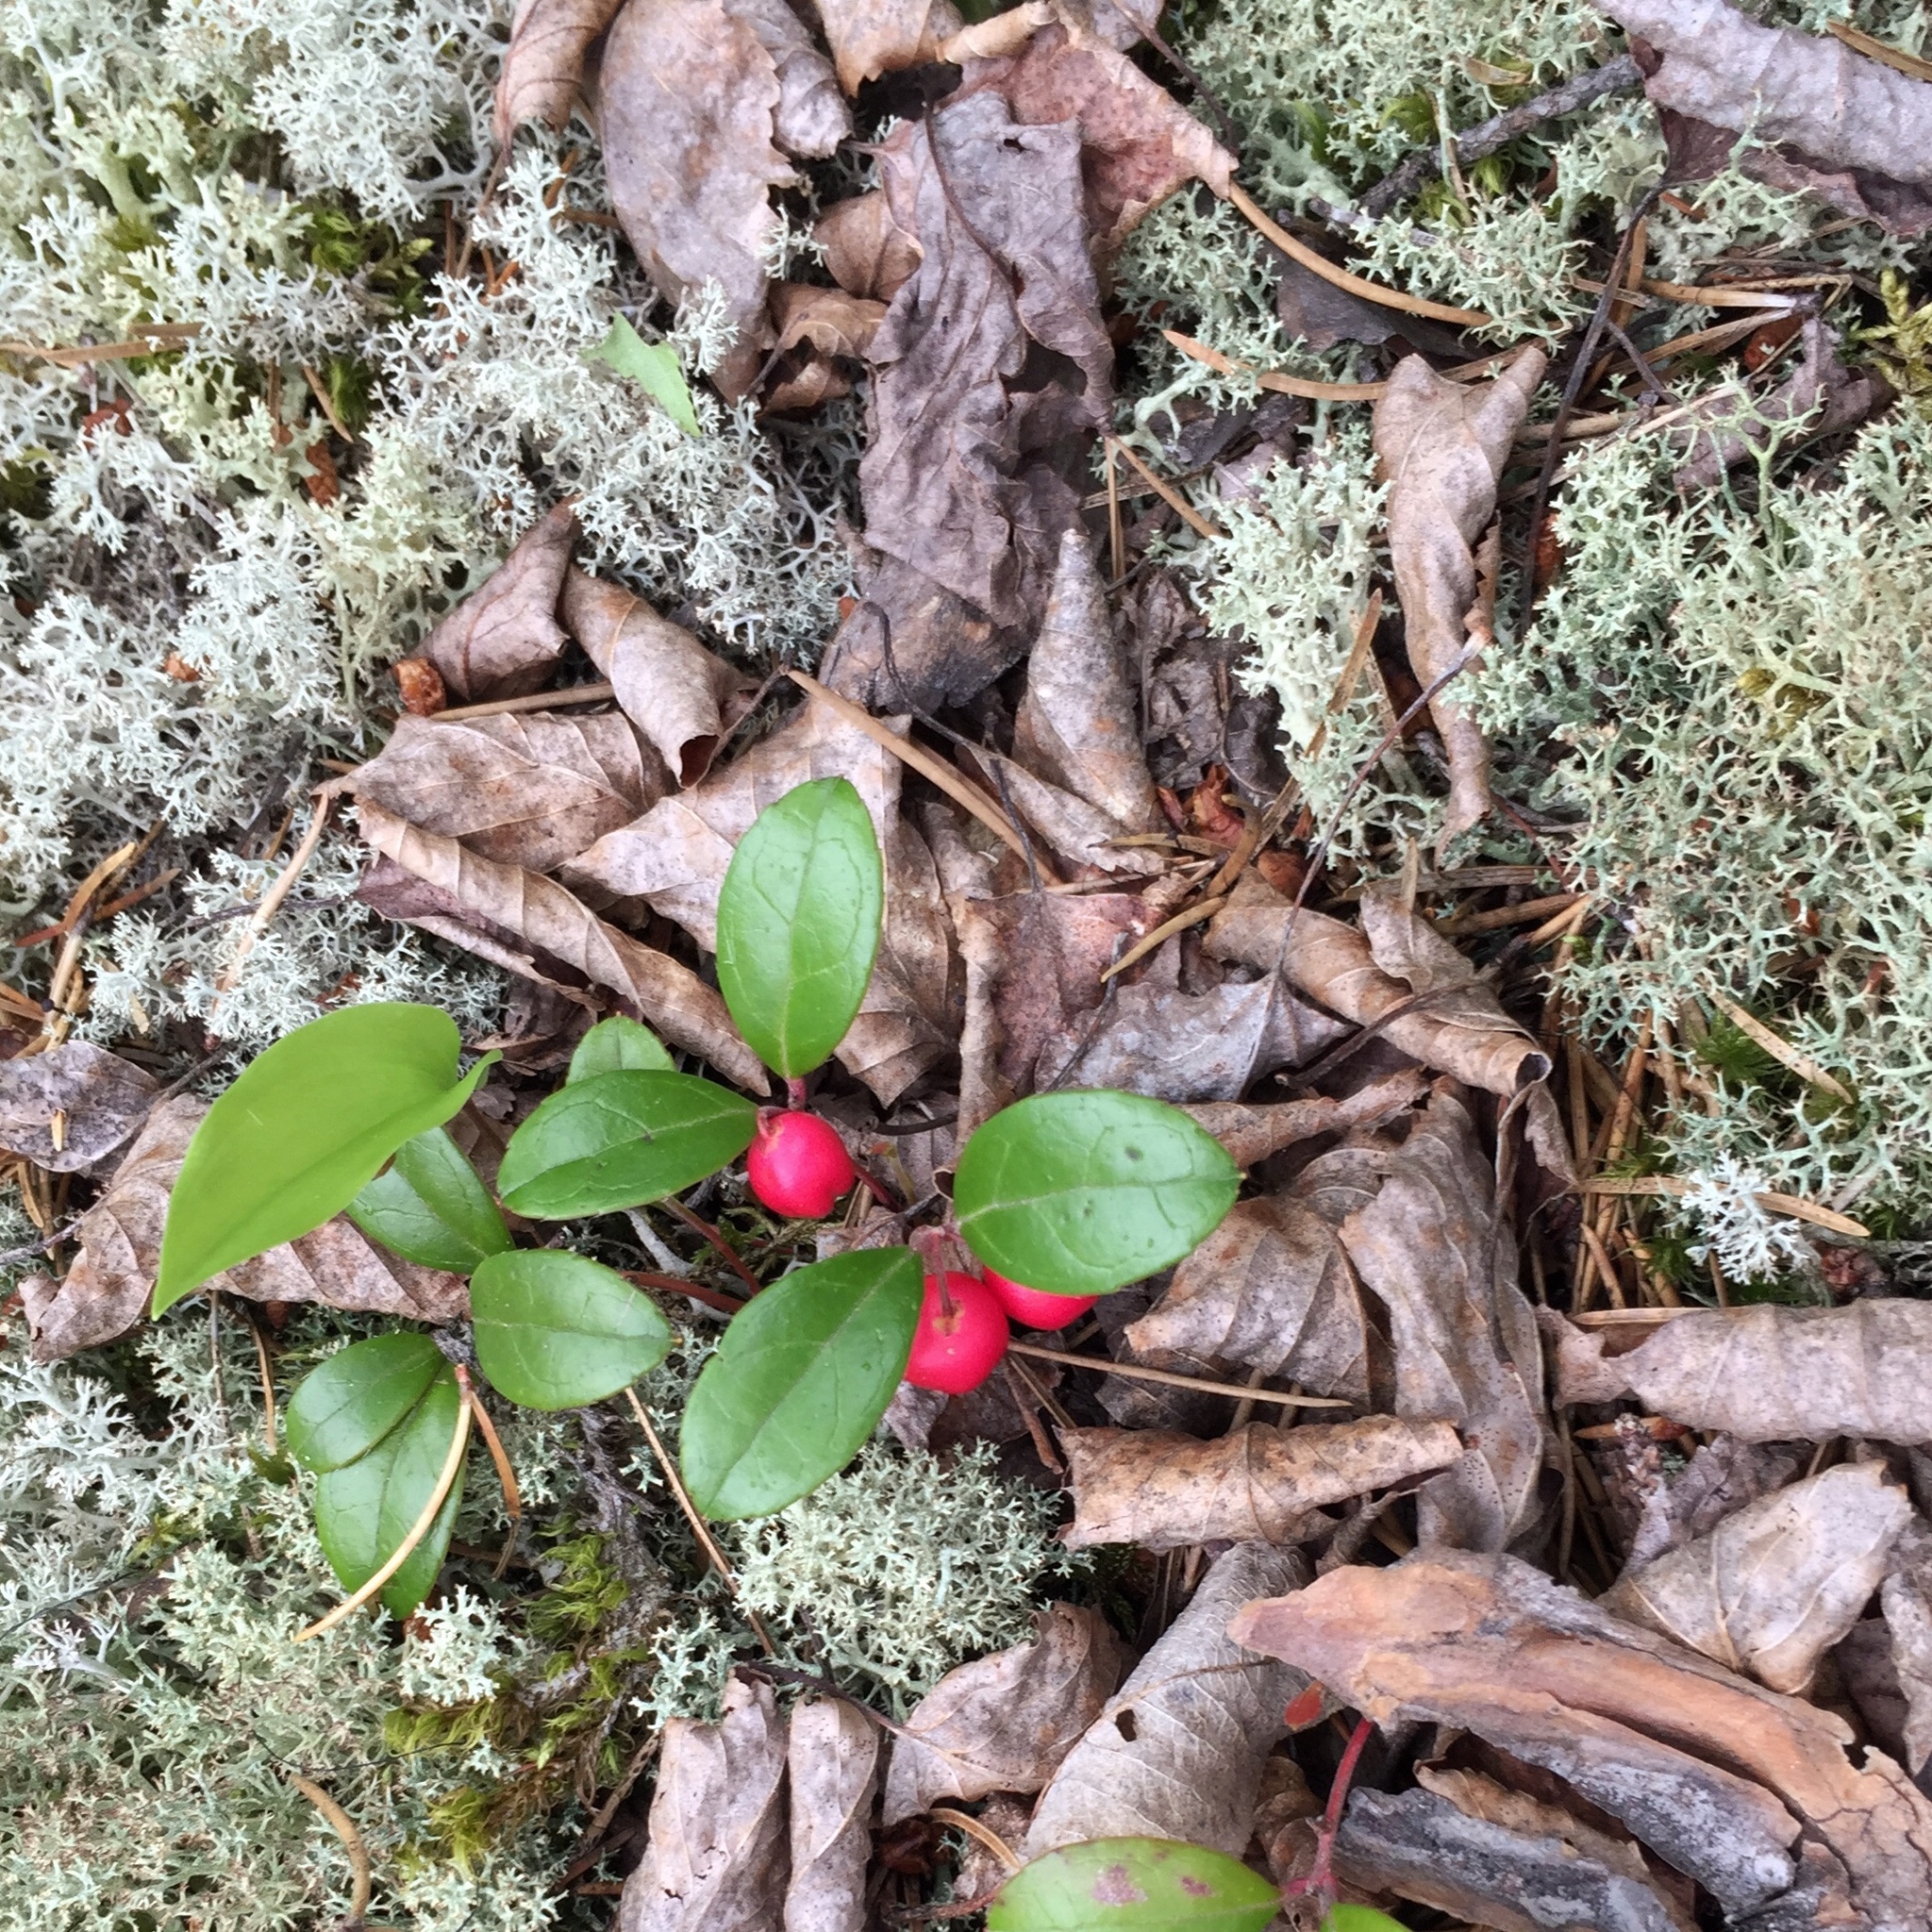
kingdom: Plantae
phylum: Tracheophyta
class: Magnoliopsida
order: Ericales
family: Ericaceae
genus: Gaultheria
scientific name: Gaultheria procumbens
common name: Checkerberry
